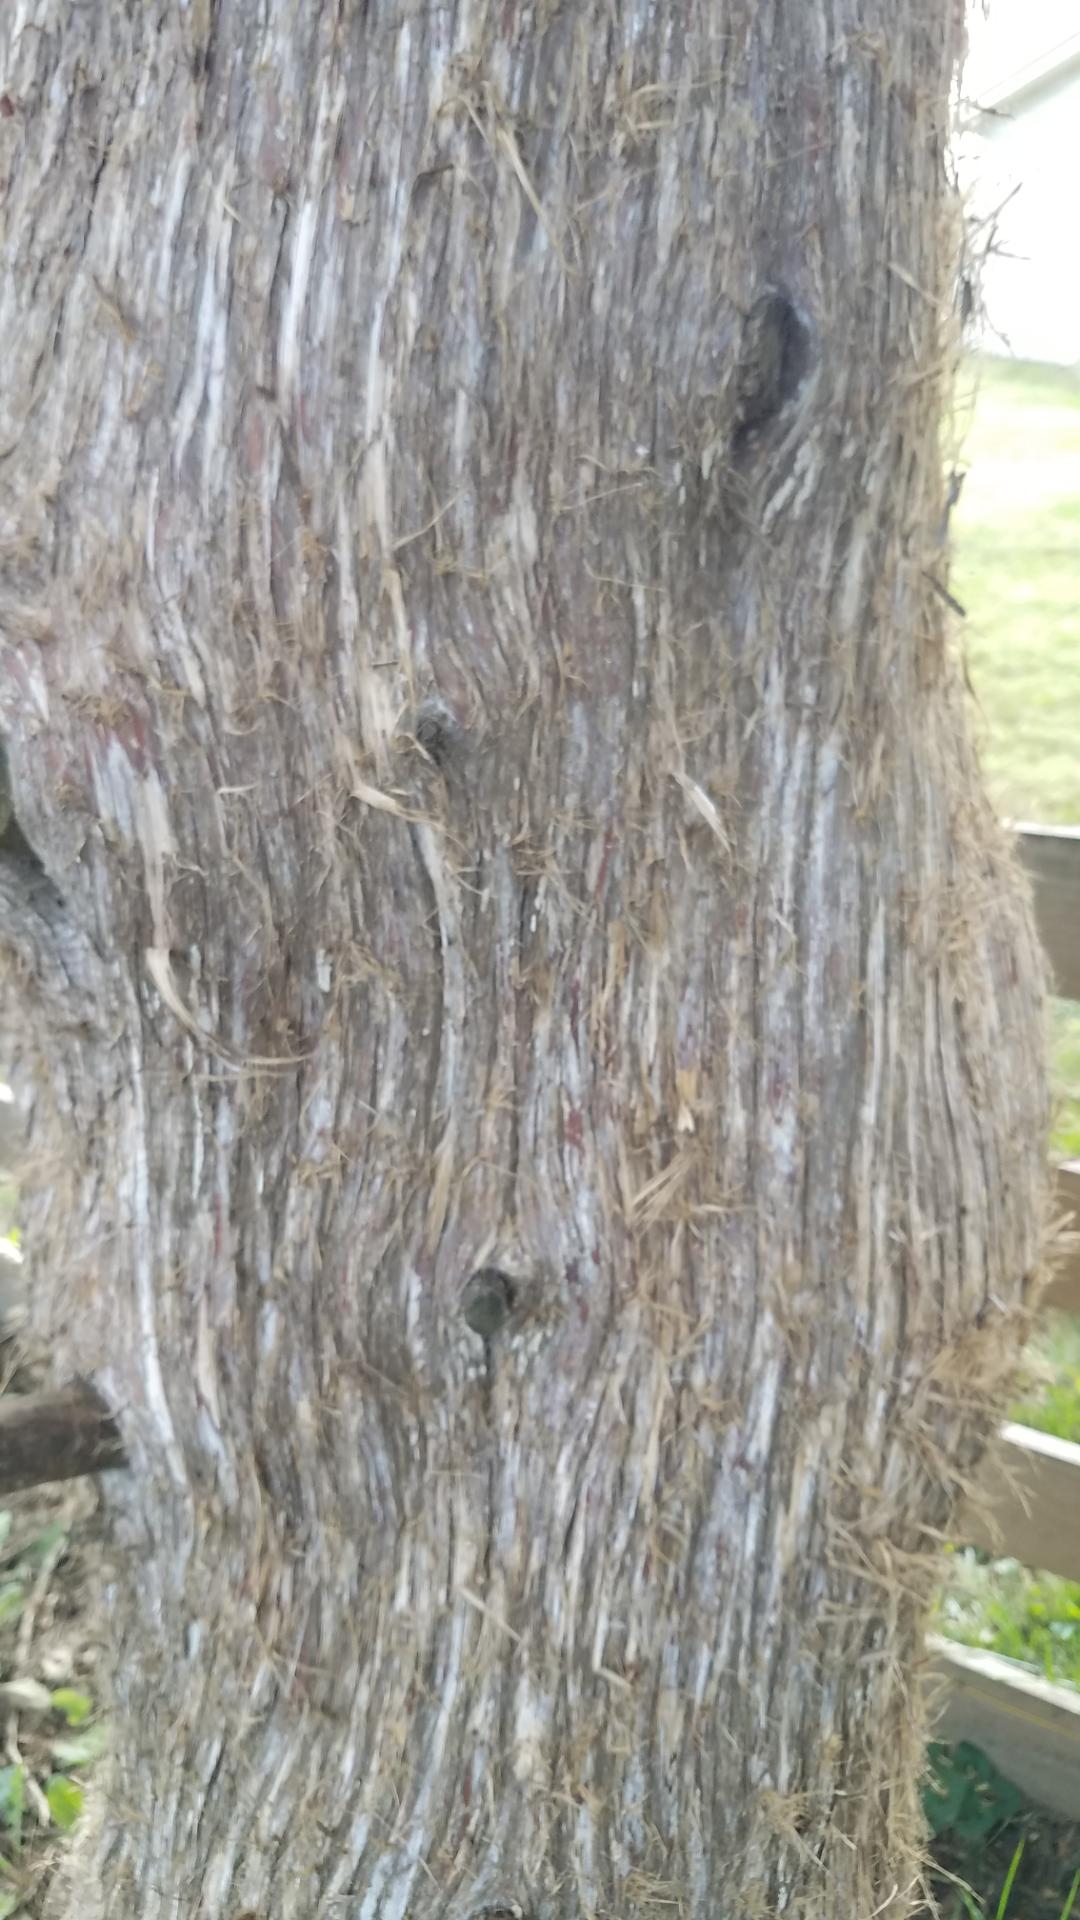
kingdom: Fungi
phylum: Basidiomycota
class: Pucciniomycetes
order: Pucciniales
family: Gymnosporangiaceae
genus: Gymnosporangium
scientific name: Gymnosporangium juniperi-virginianae
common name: Juniper-apple rust
